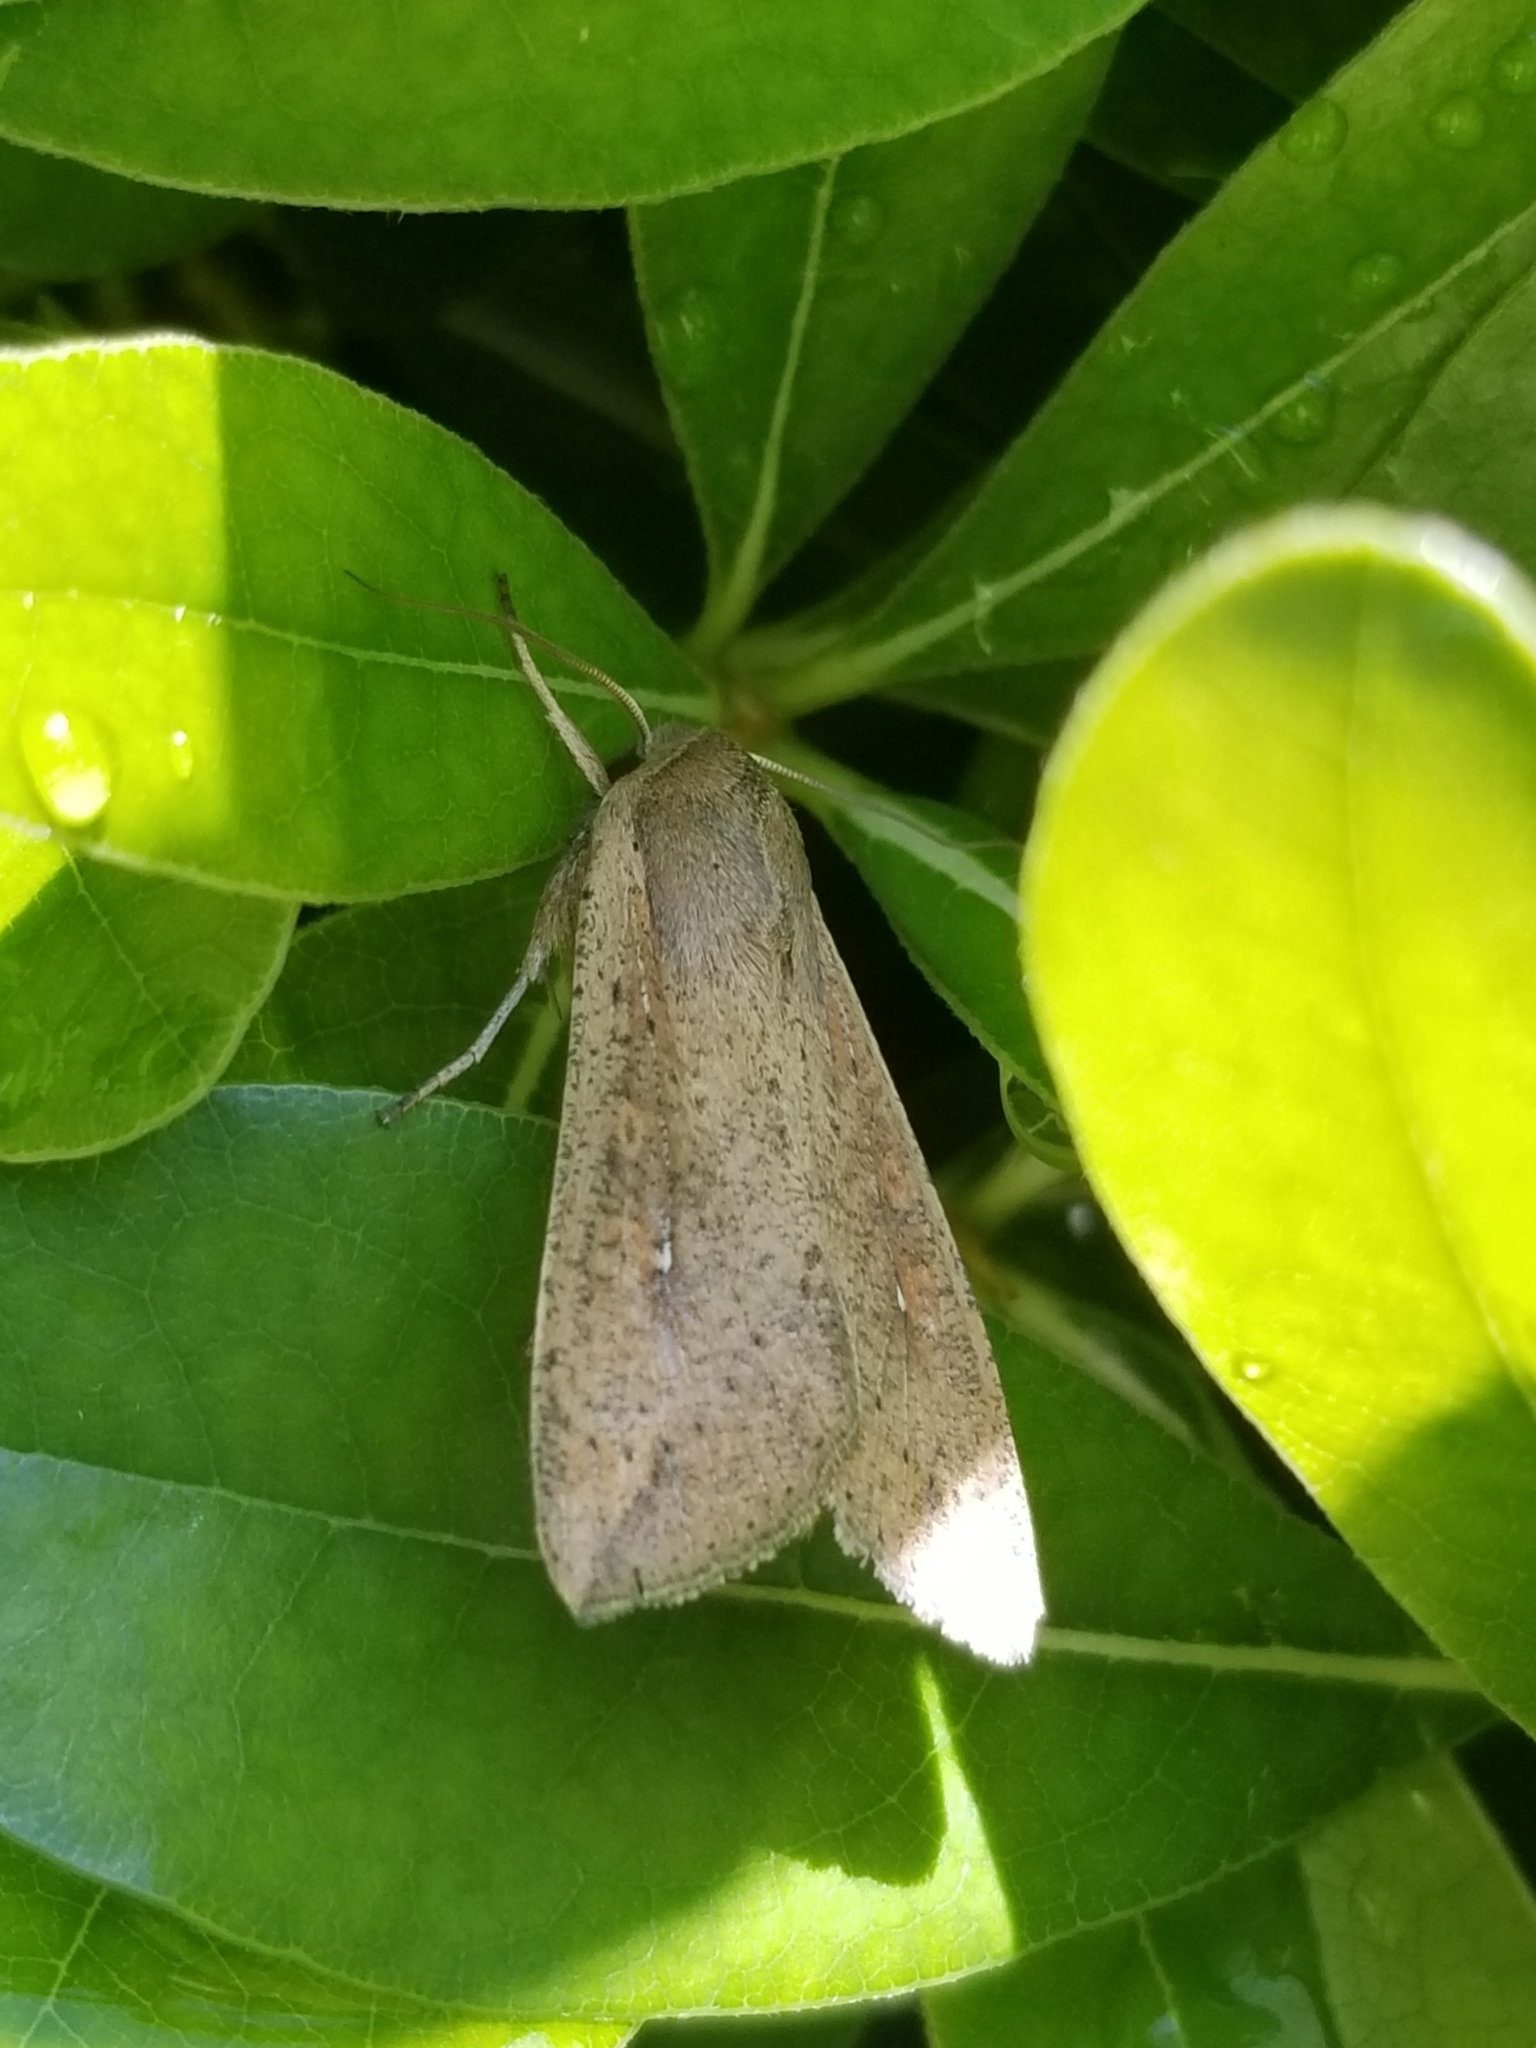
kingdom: Animalia
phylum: Arthropoda
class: Insecta
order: Lepidoptera
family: Noctuidae
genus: Mythimna
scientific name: Mythimna unipuncta
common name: White-speck
